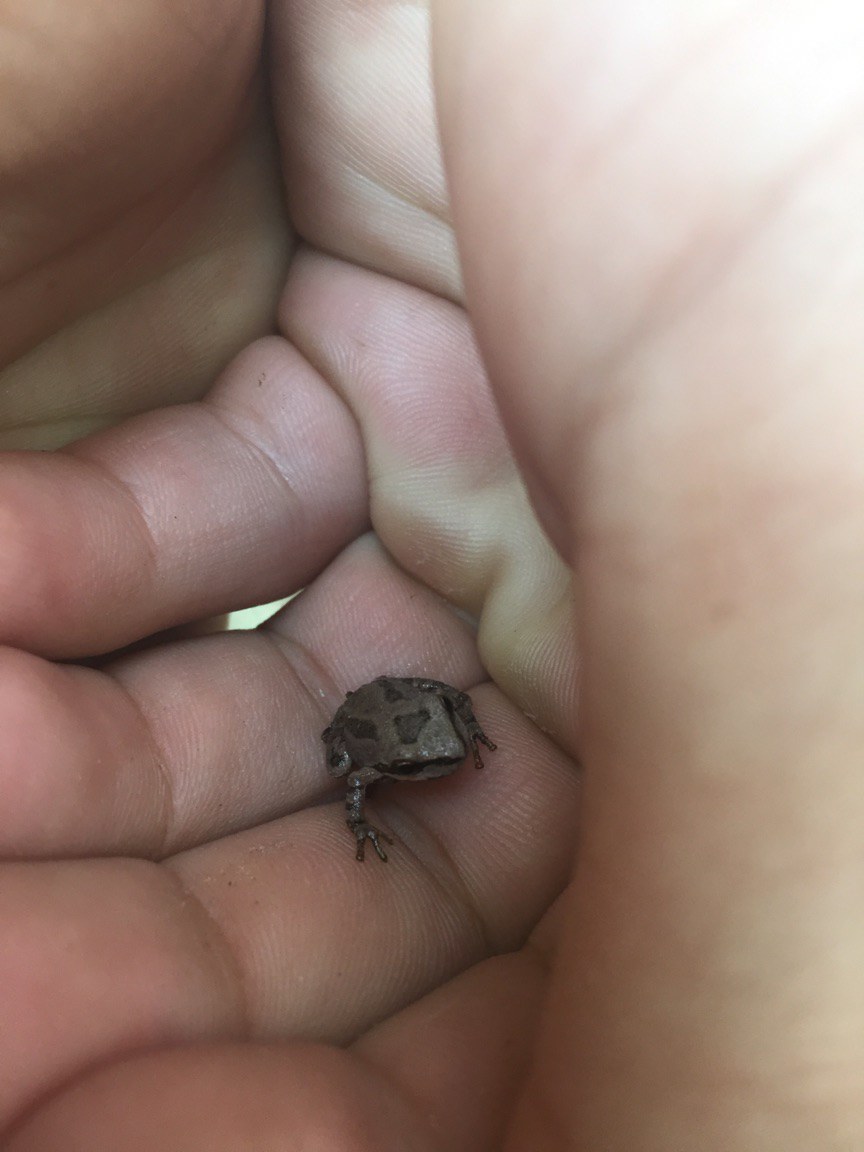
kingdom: Animalia
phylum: Chordata
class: Amphibia
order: Anura
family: Hylidae
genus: Pseudacris
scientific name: Pseudacris regilla
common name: Pacific chorus frog
